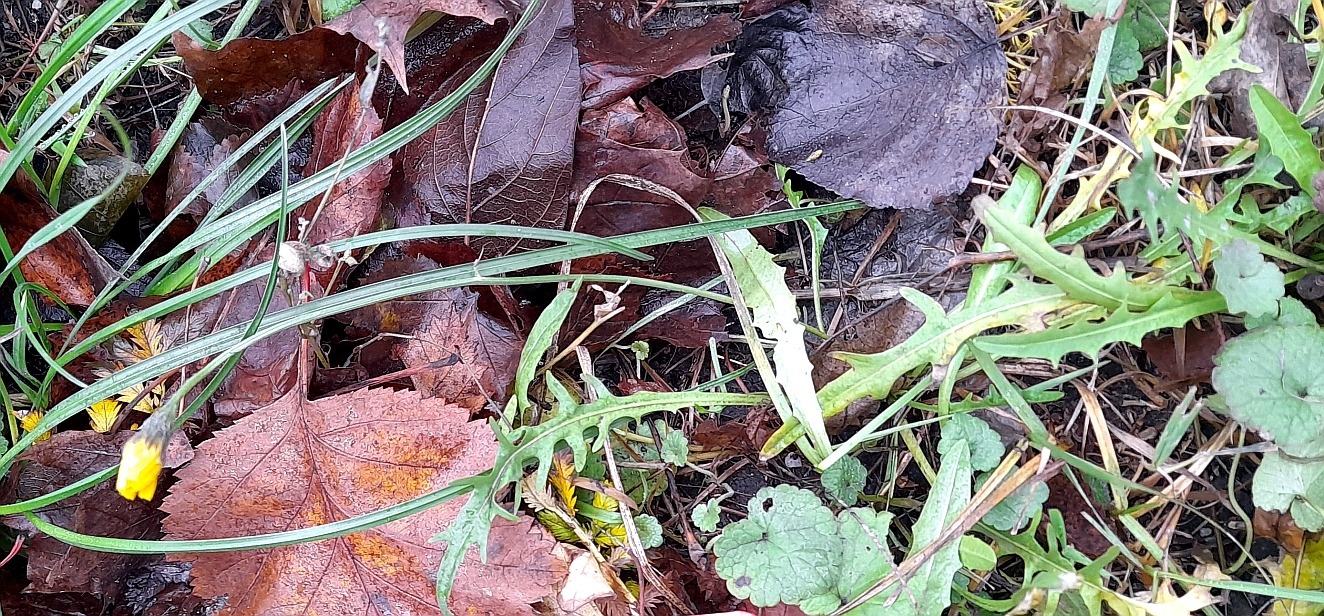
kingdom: Plantae
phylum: Tracheophyta
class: Magnoliopsida
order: Asterales
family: Asteraceae
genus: Scorzoneroides
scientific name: Scorzoneroides autumnalis
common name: Autumn hawkbit
